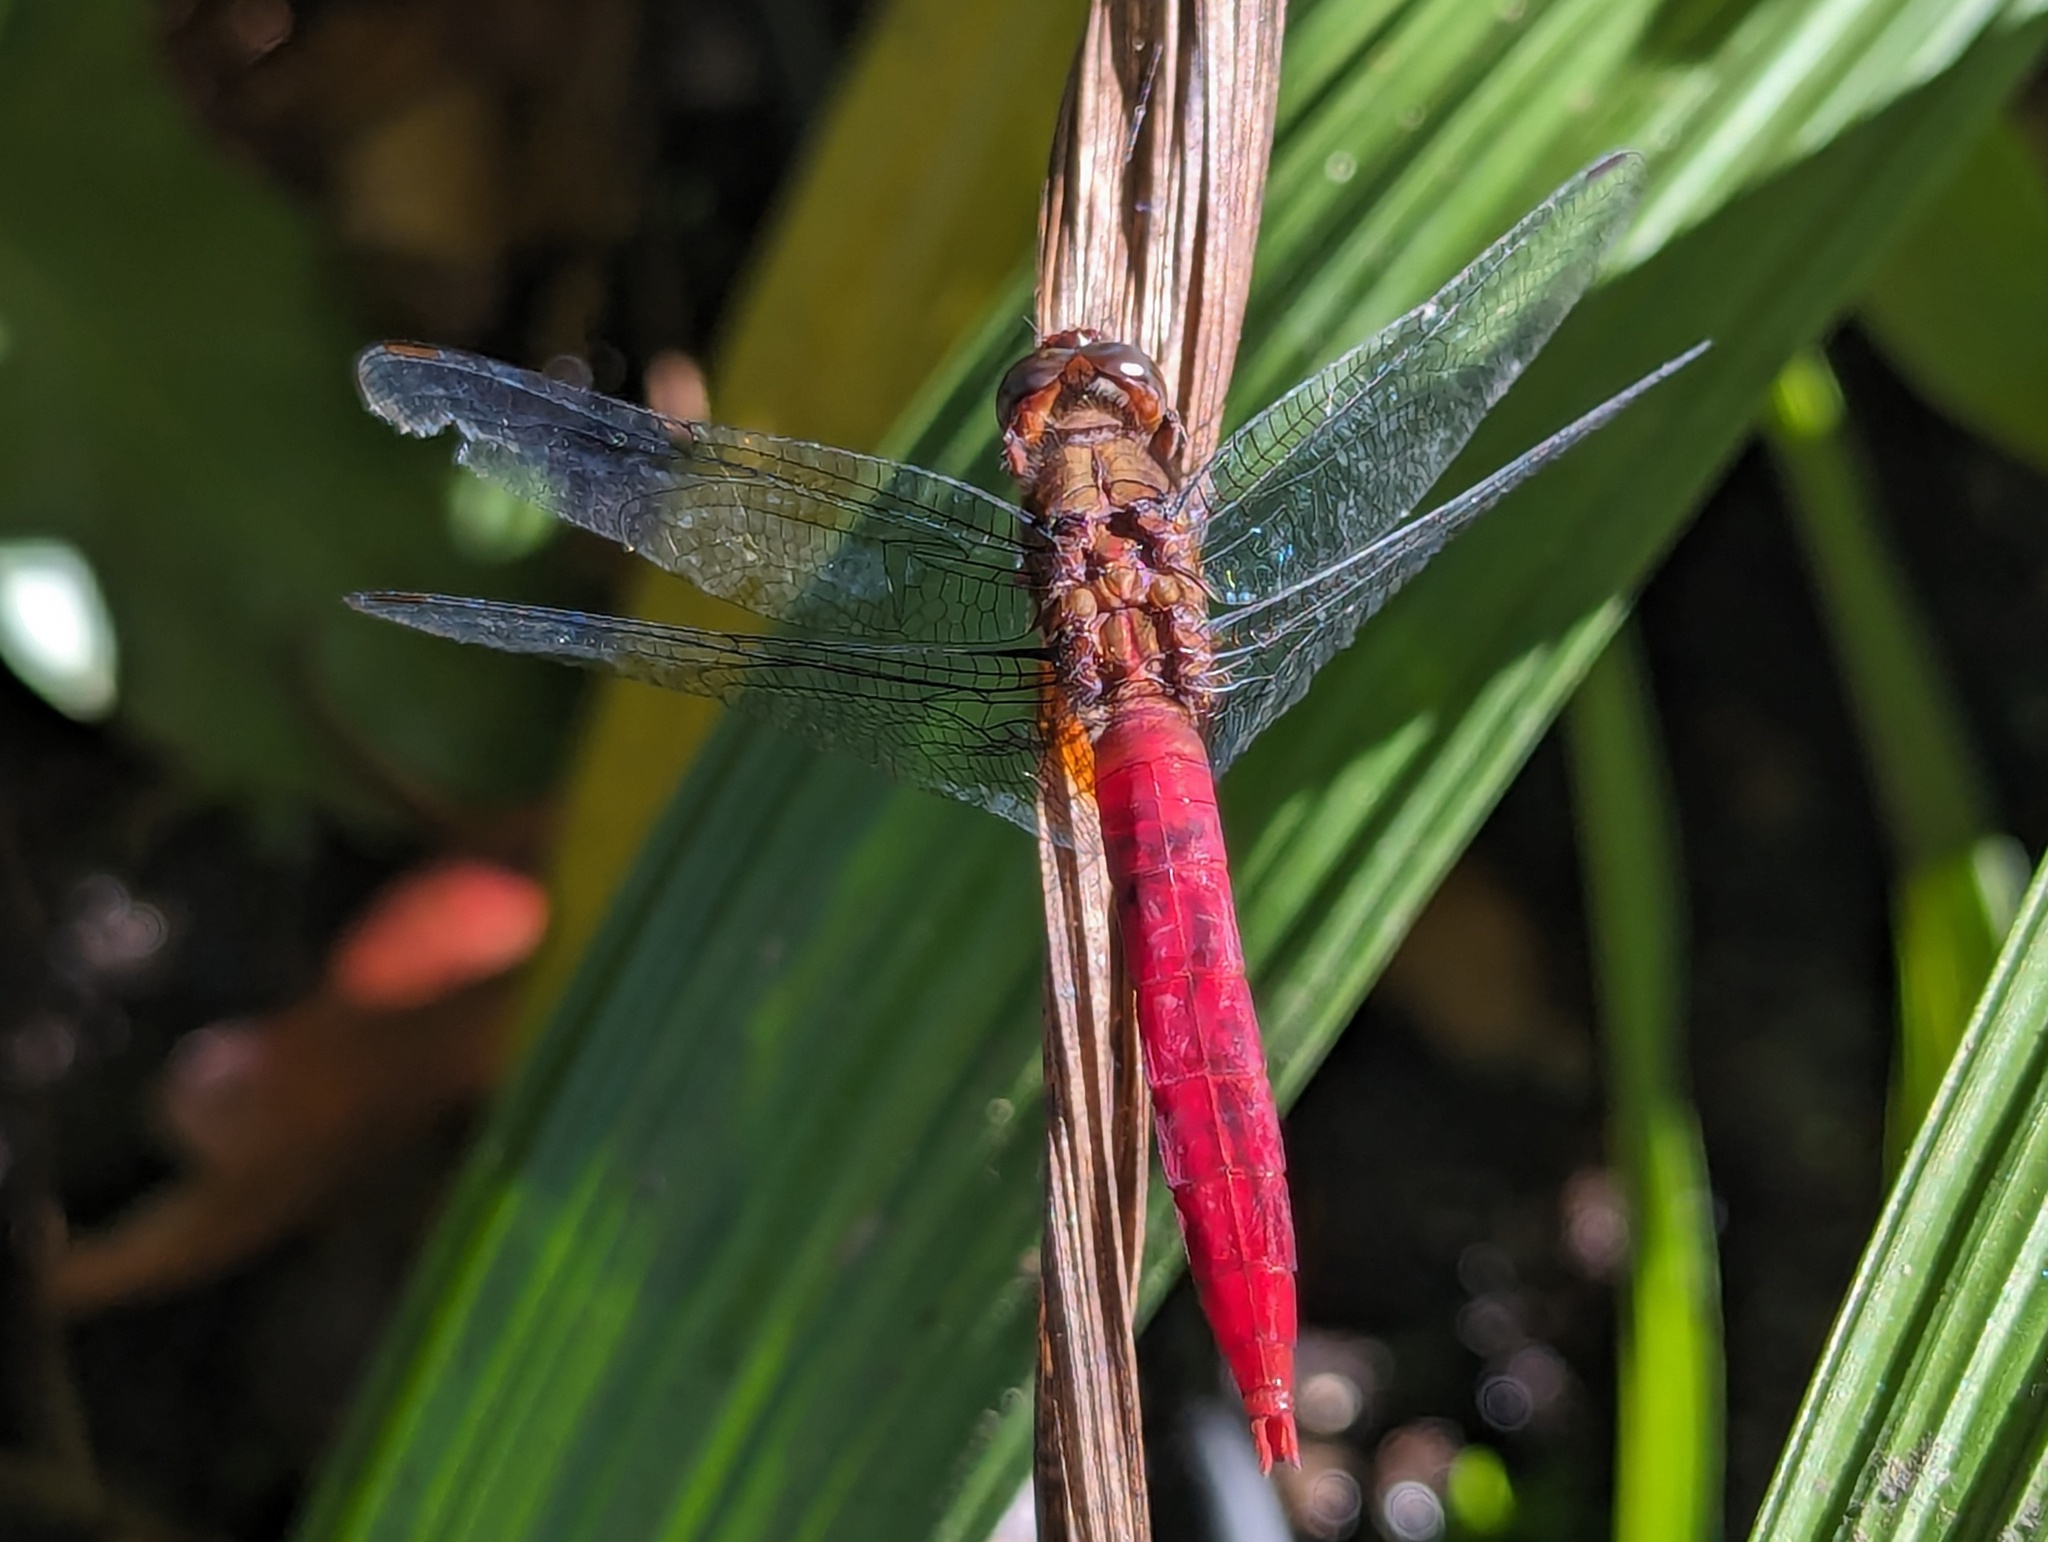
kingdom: Animalia
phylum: Arthropoda
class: Insecta
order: Odonata
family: Libellulidae
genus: Orthetrum
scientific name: Orthetrum chrysis
